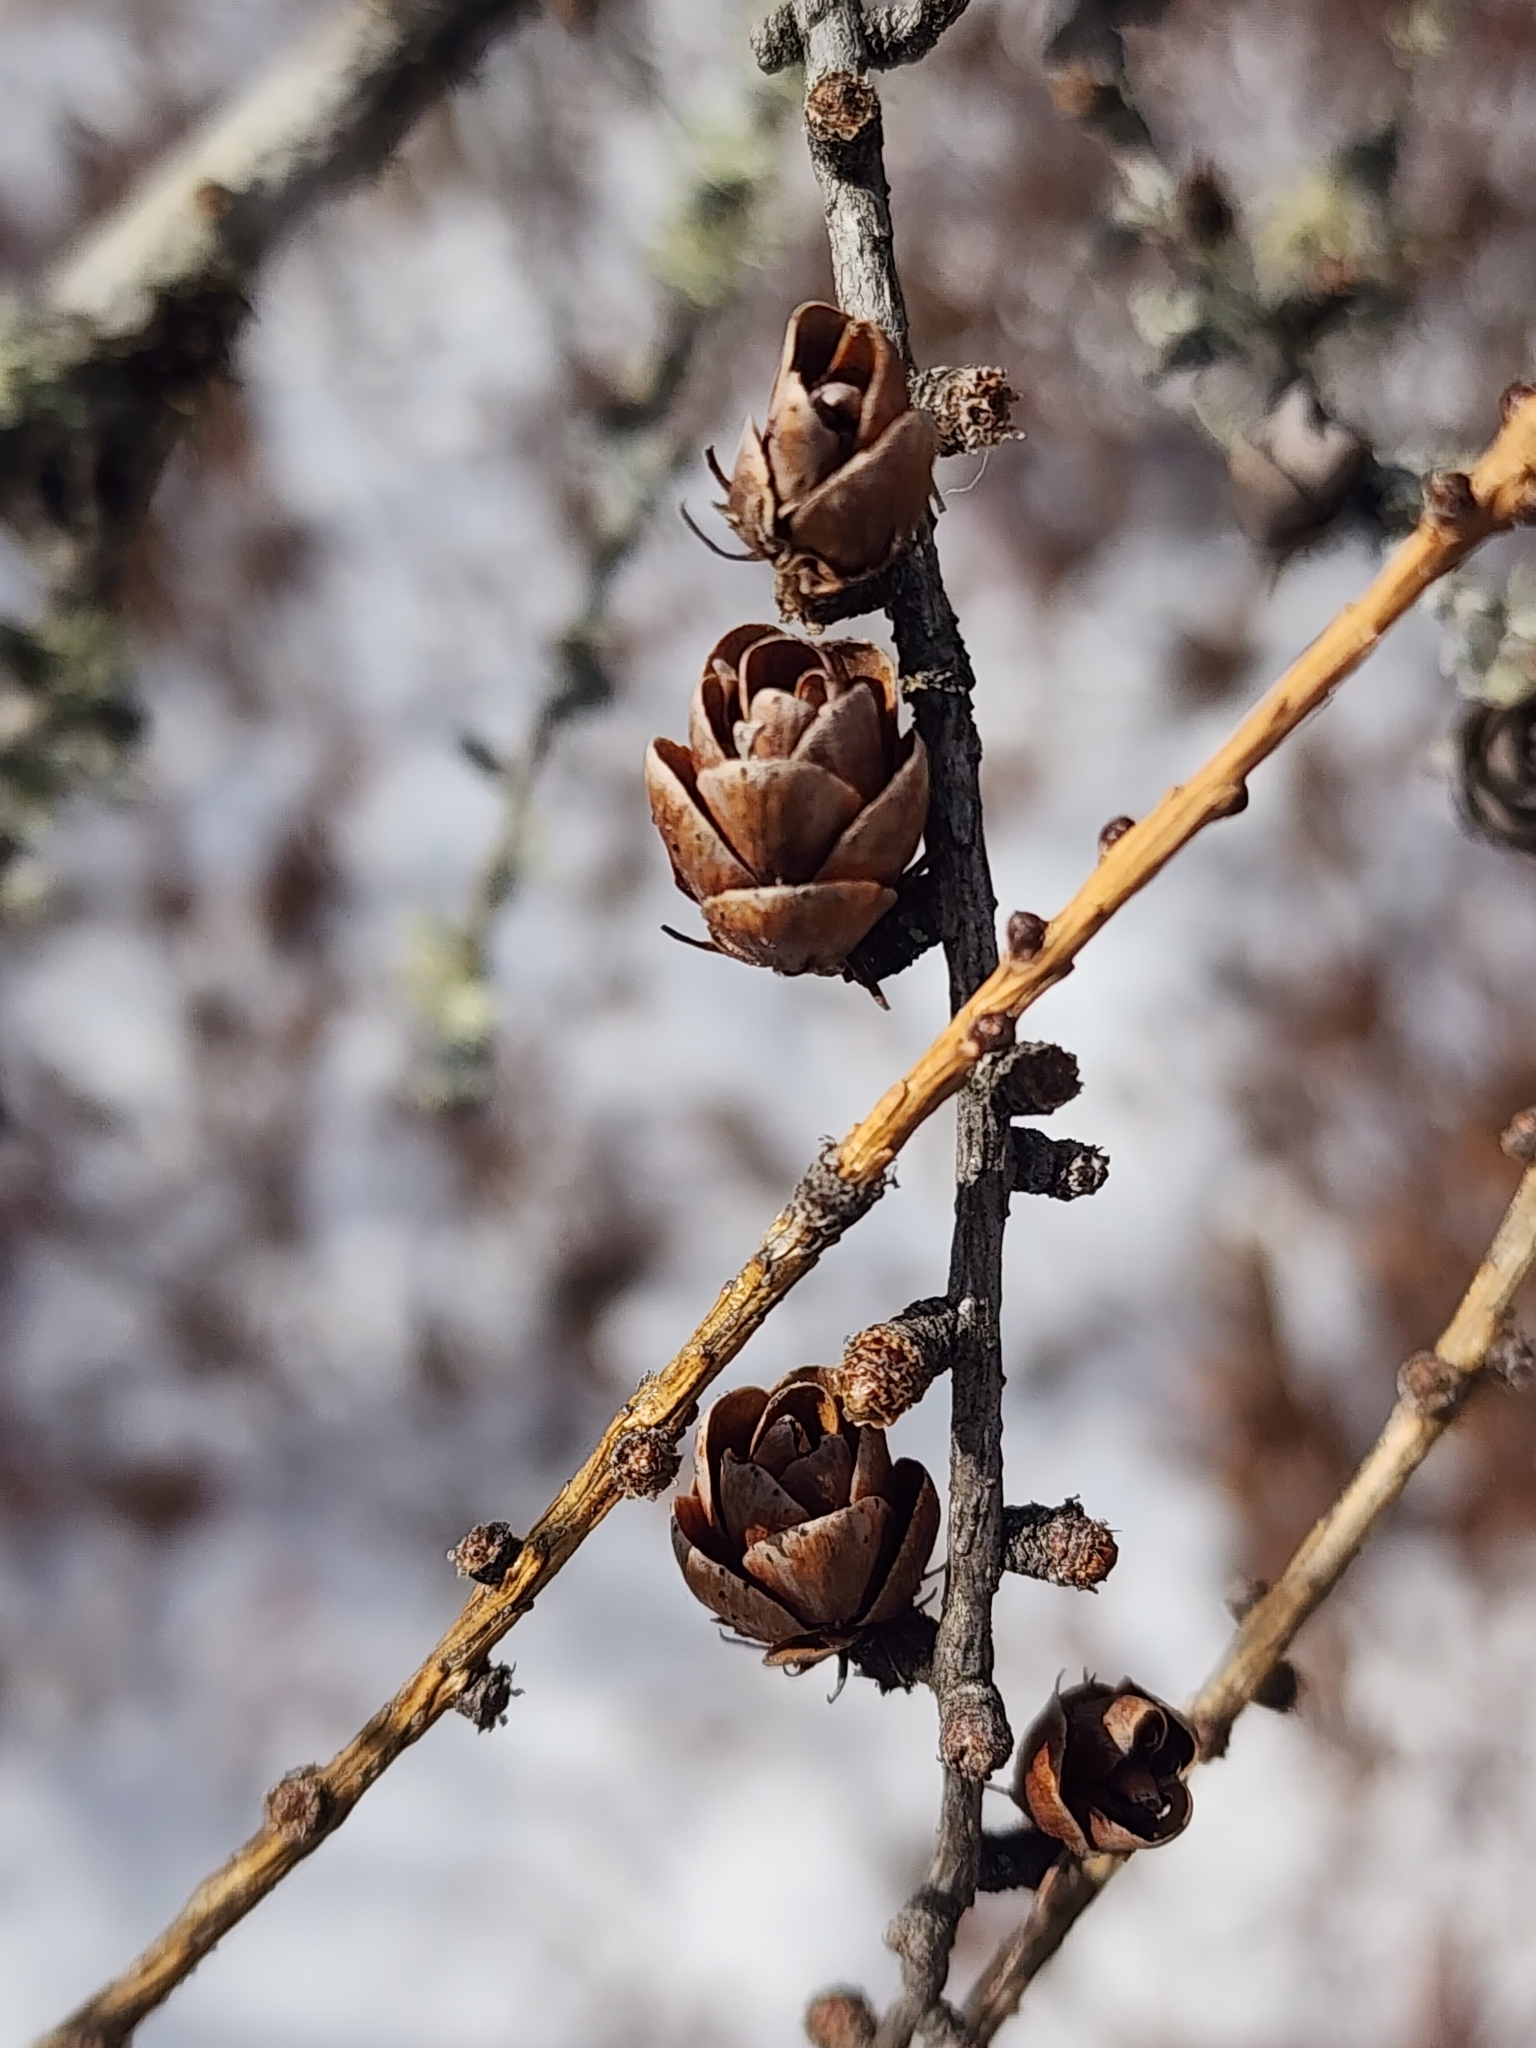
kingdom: Plantae
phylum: Tracheophyta
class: Pinopsida
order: Pinales
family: Pinaceae
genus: Larix
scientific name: Larix laricina
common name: American larch
